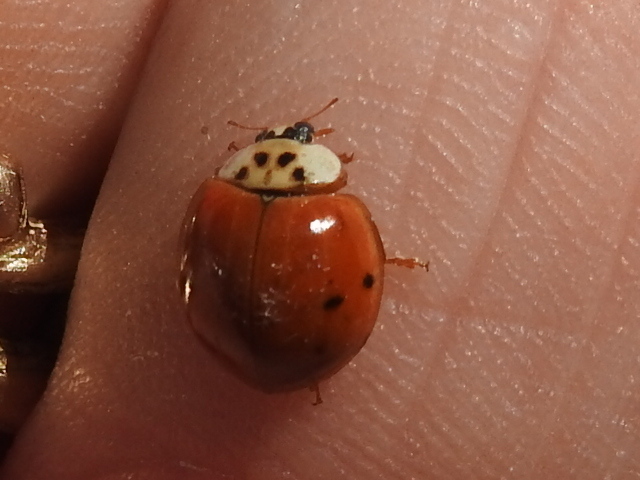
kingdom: Animalia
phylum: Arthropoda
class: Insecta
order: Coleoptera
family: Coccinellidae
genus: Harmonia
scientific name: Harmonia axyridis
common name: Harlequin ladybird
